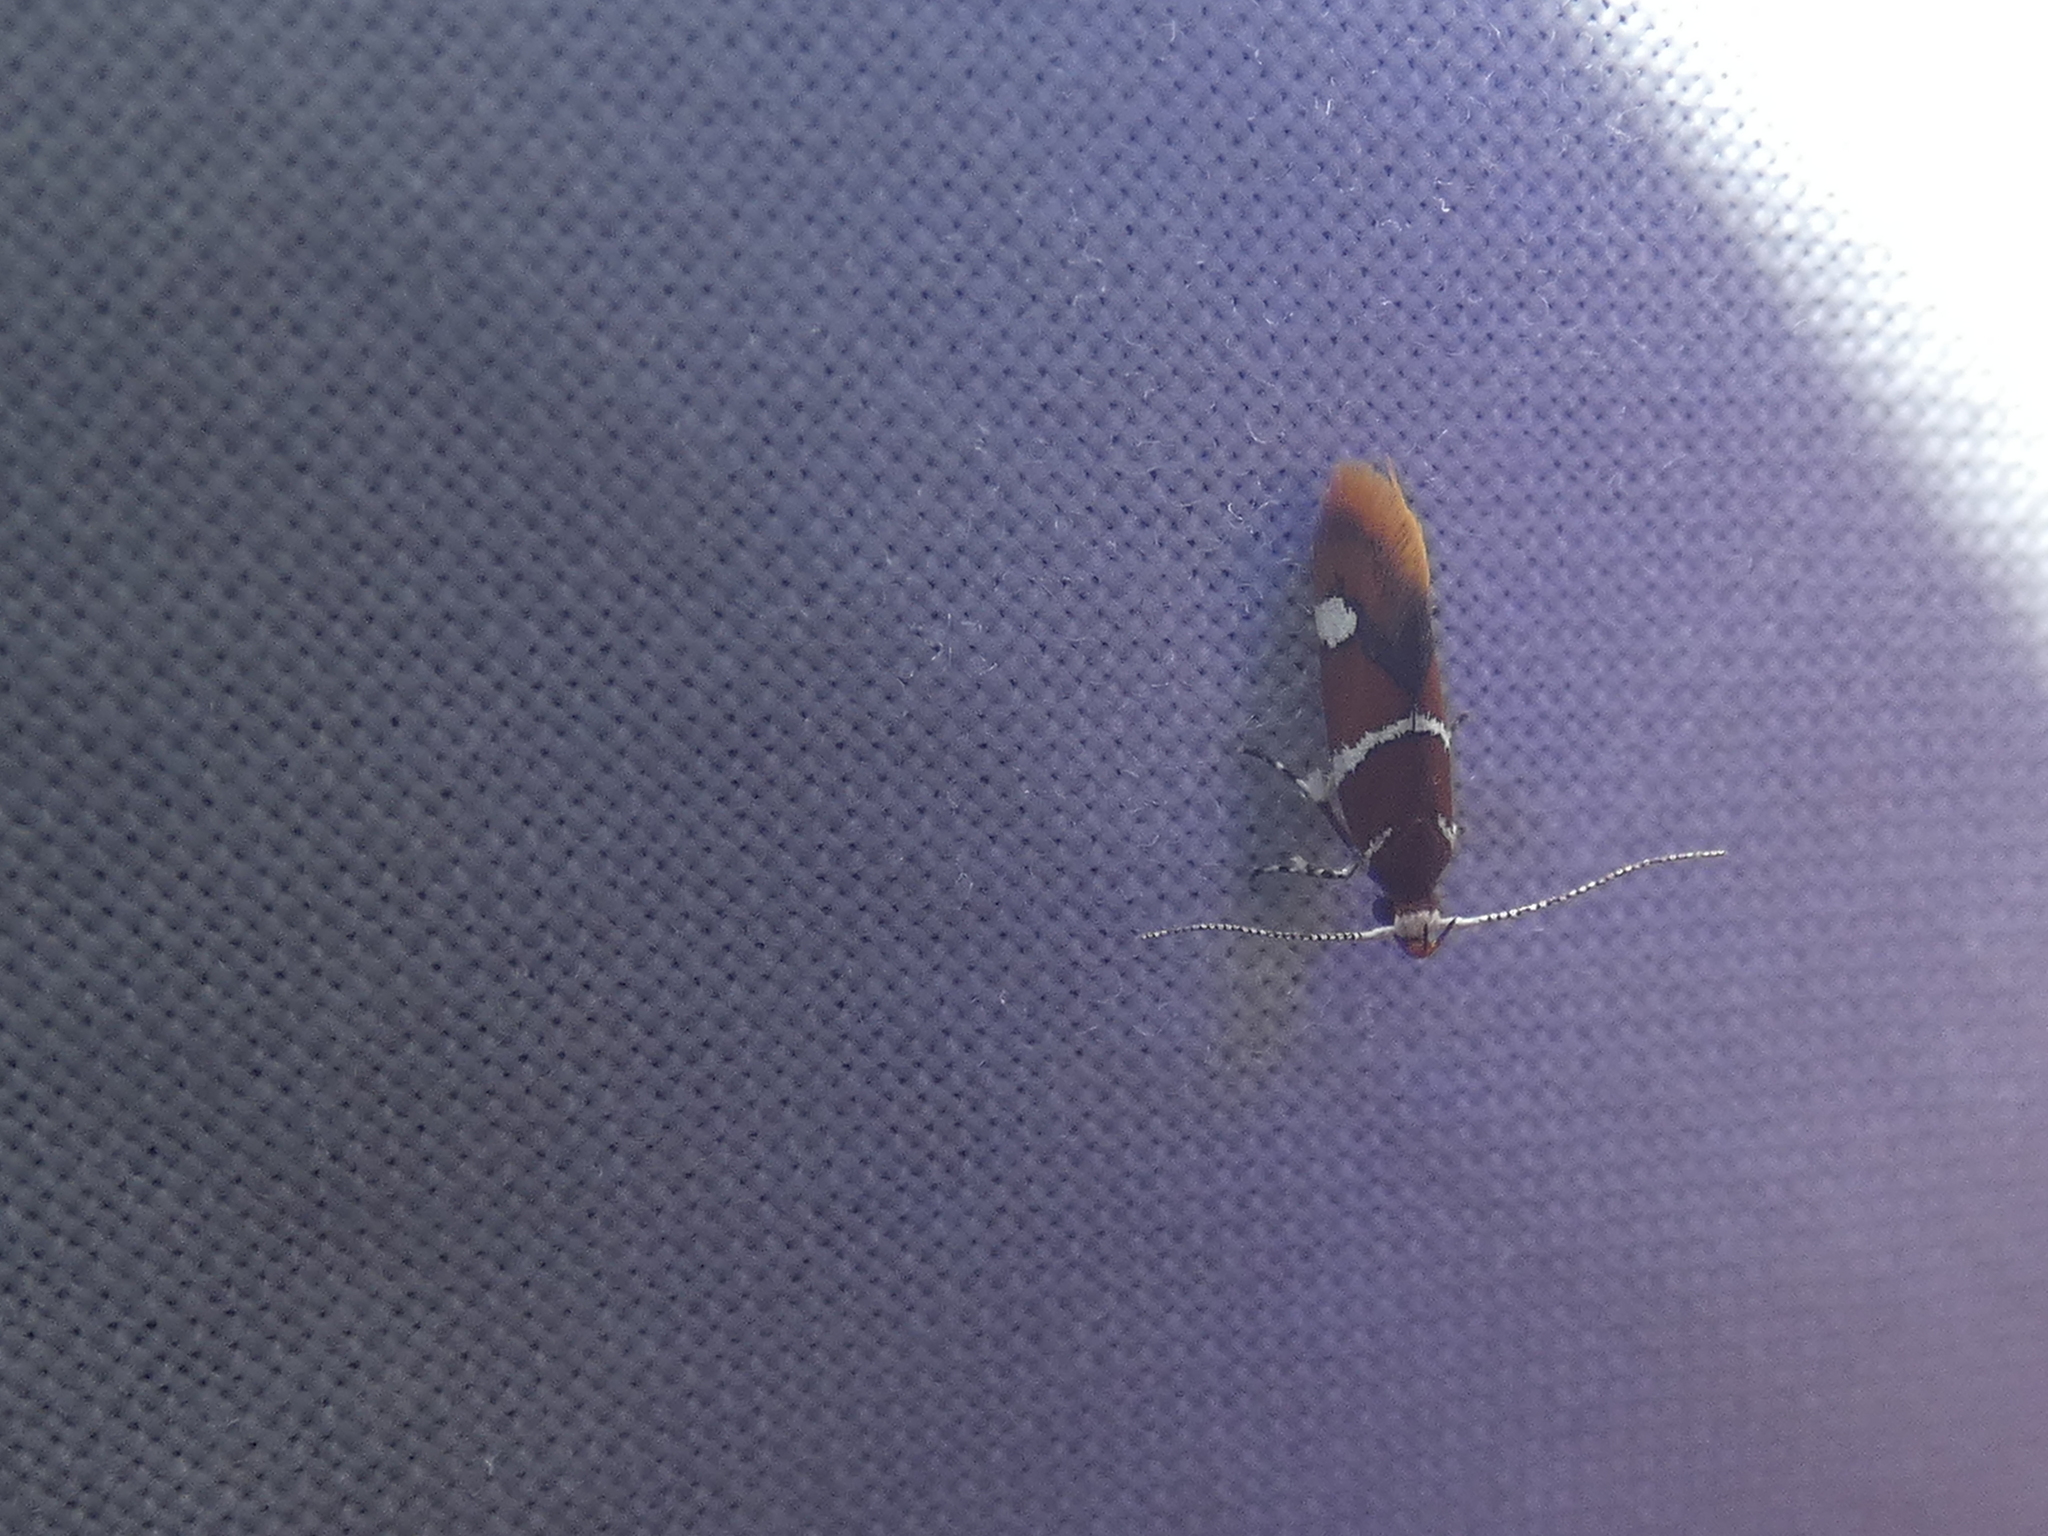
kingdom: Animalia
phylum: Arthropoda
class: Insecta
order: Lepidoptera
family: Oecophoridae
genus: Promalactis
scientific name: Promalactis suzukiella
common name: Moth
